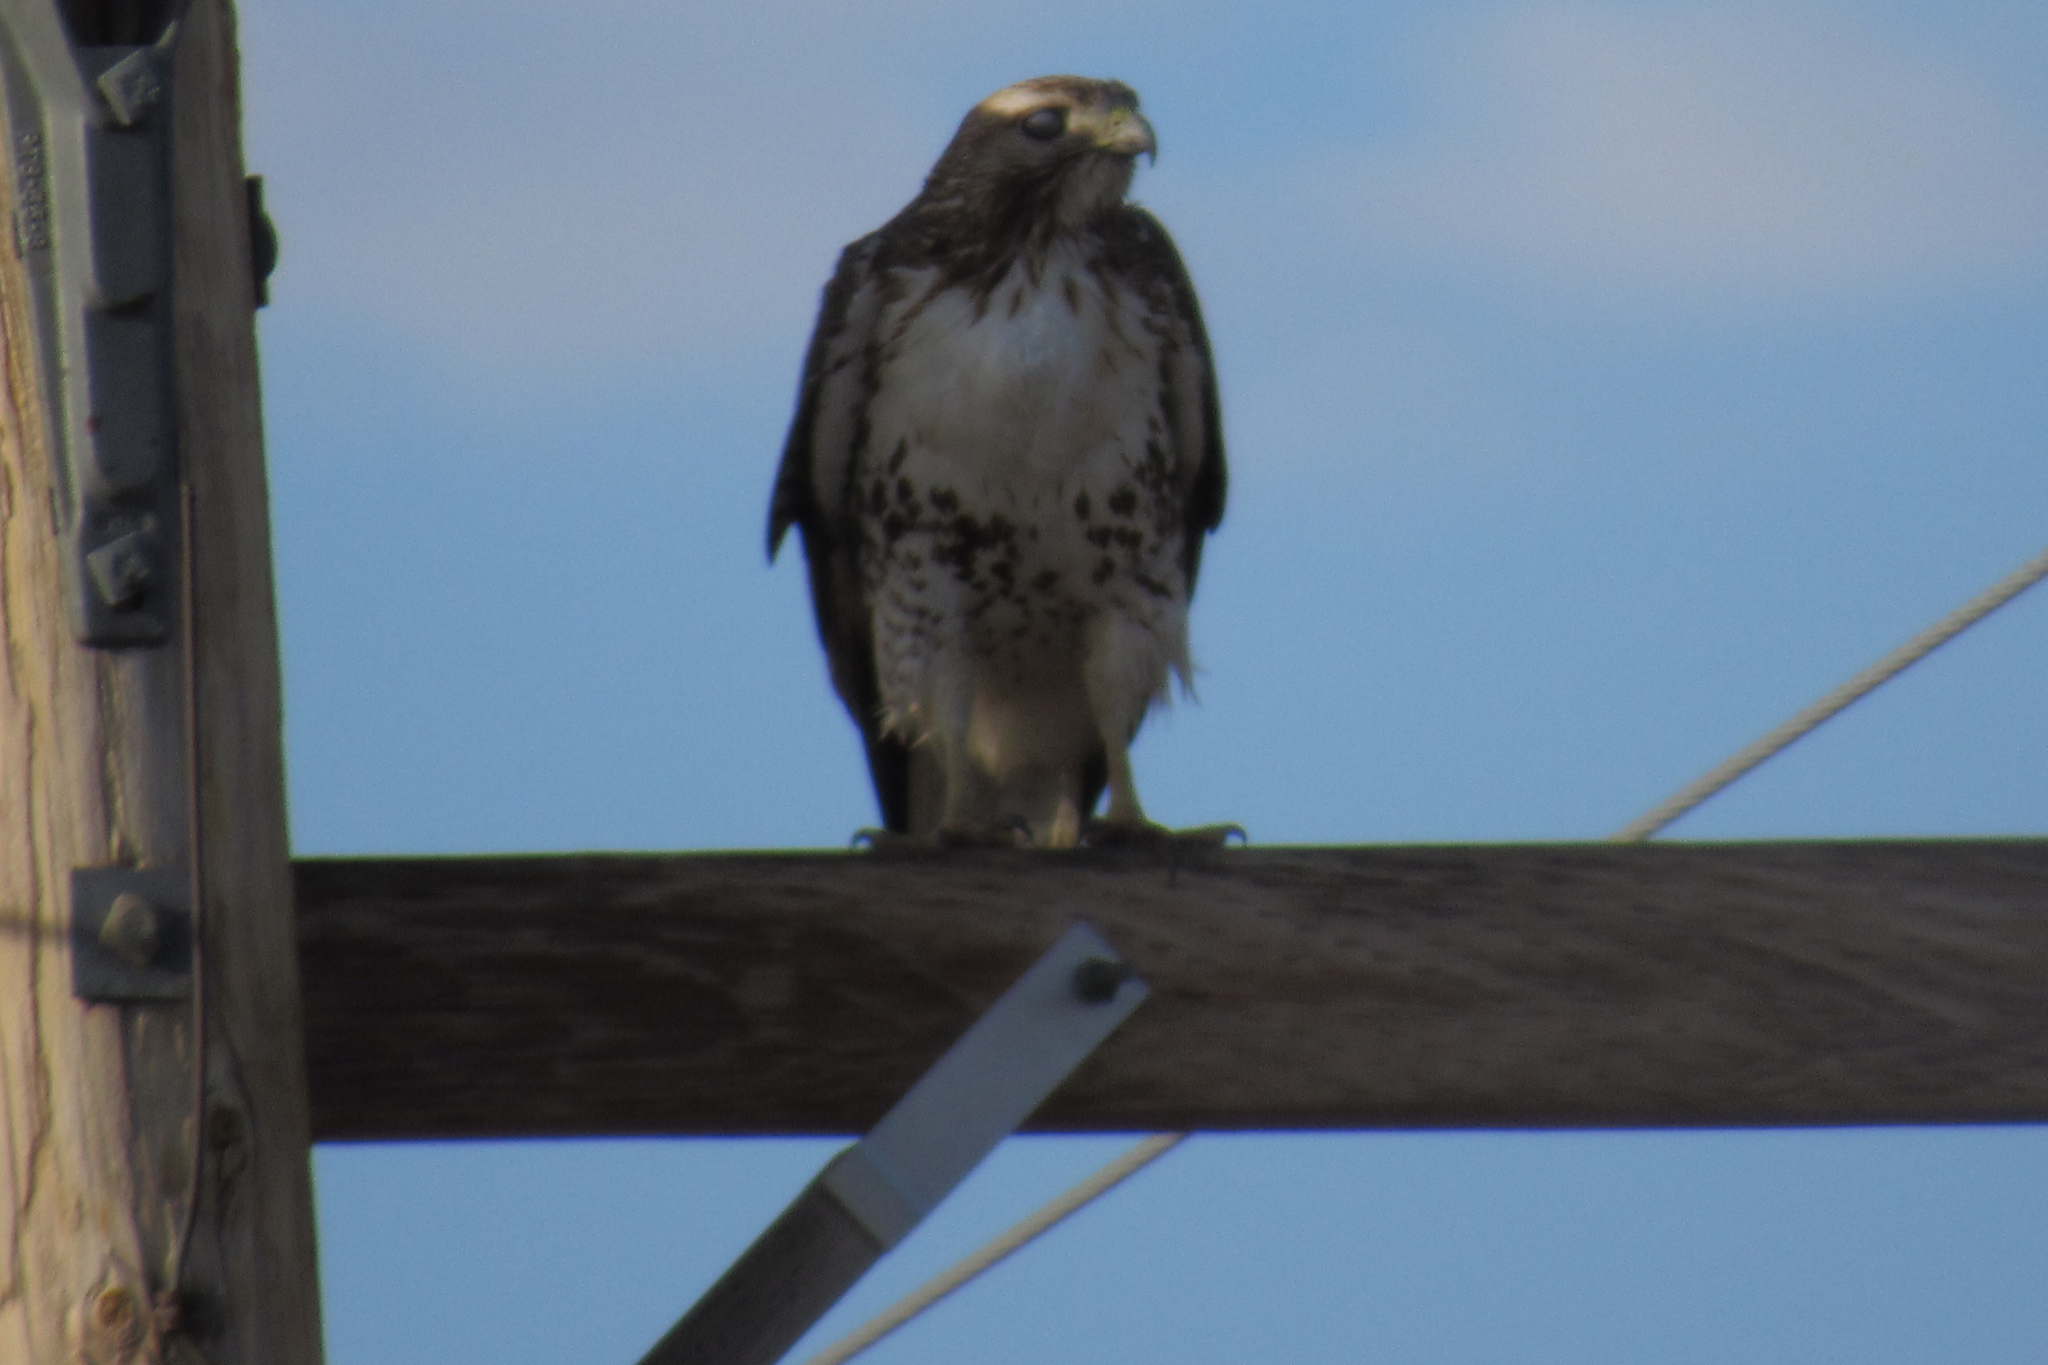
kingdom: Animalia
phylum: Chordata
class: Aves
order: Accipitriformes
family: Accipitridae
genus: Buteo
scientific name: Buteo jamaicensis
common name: Red-tailed hawk
